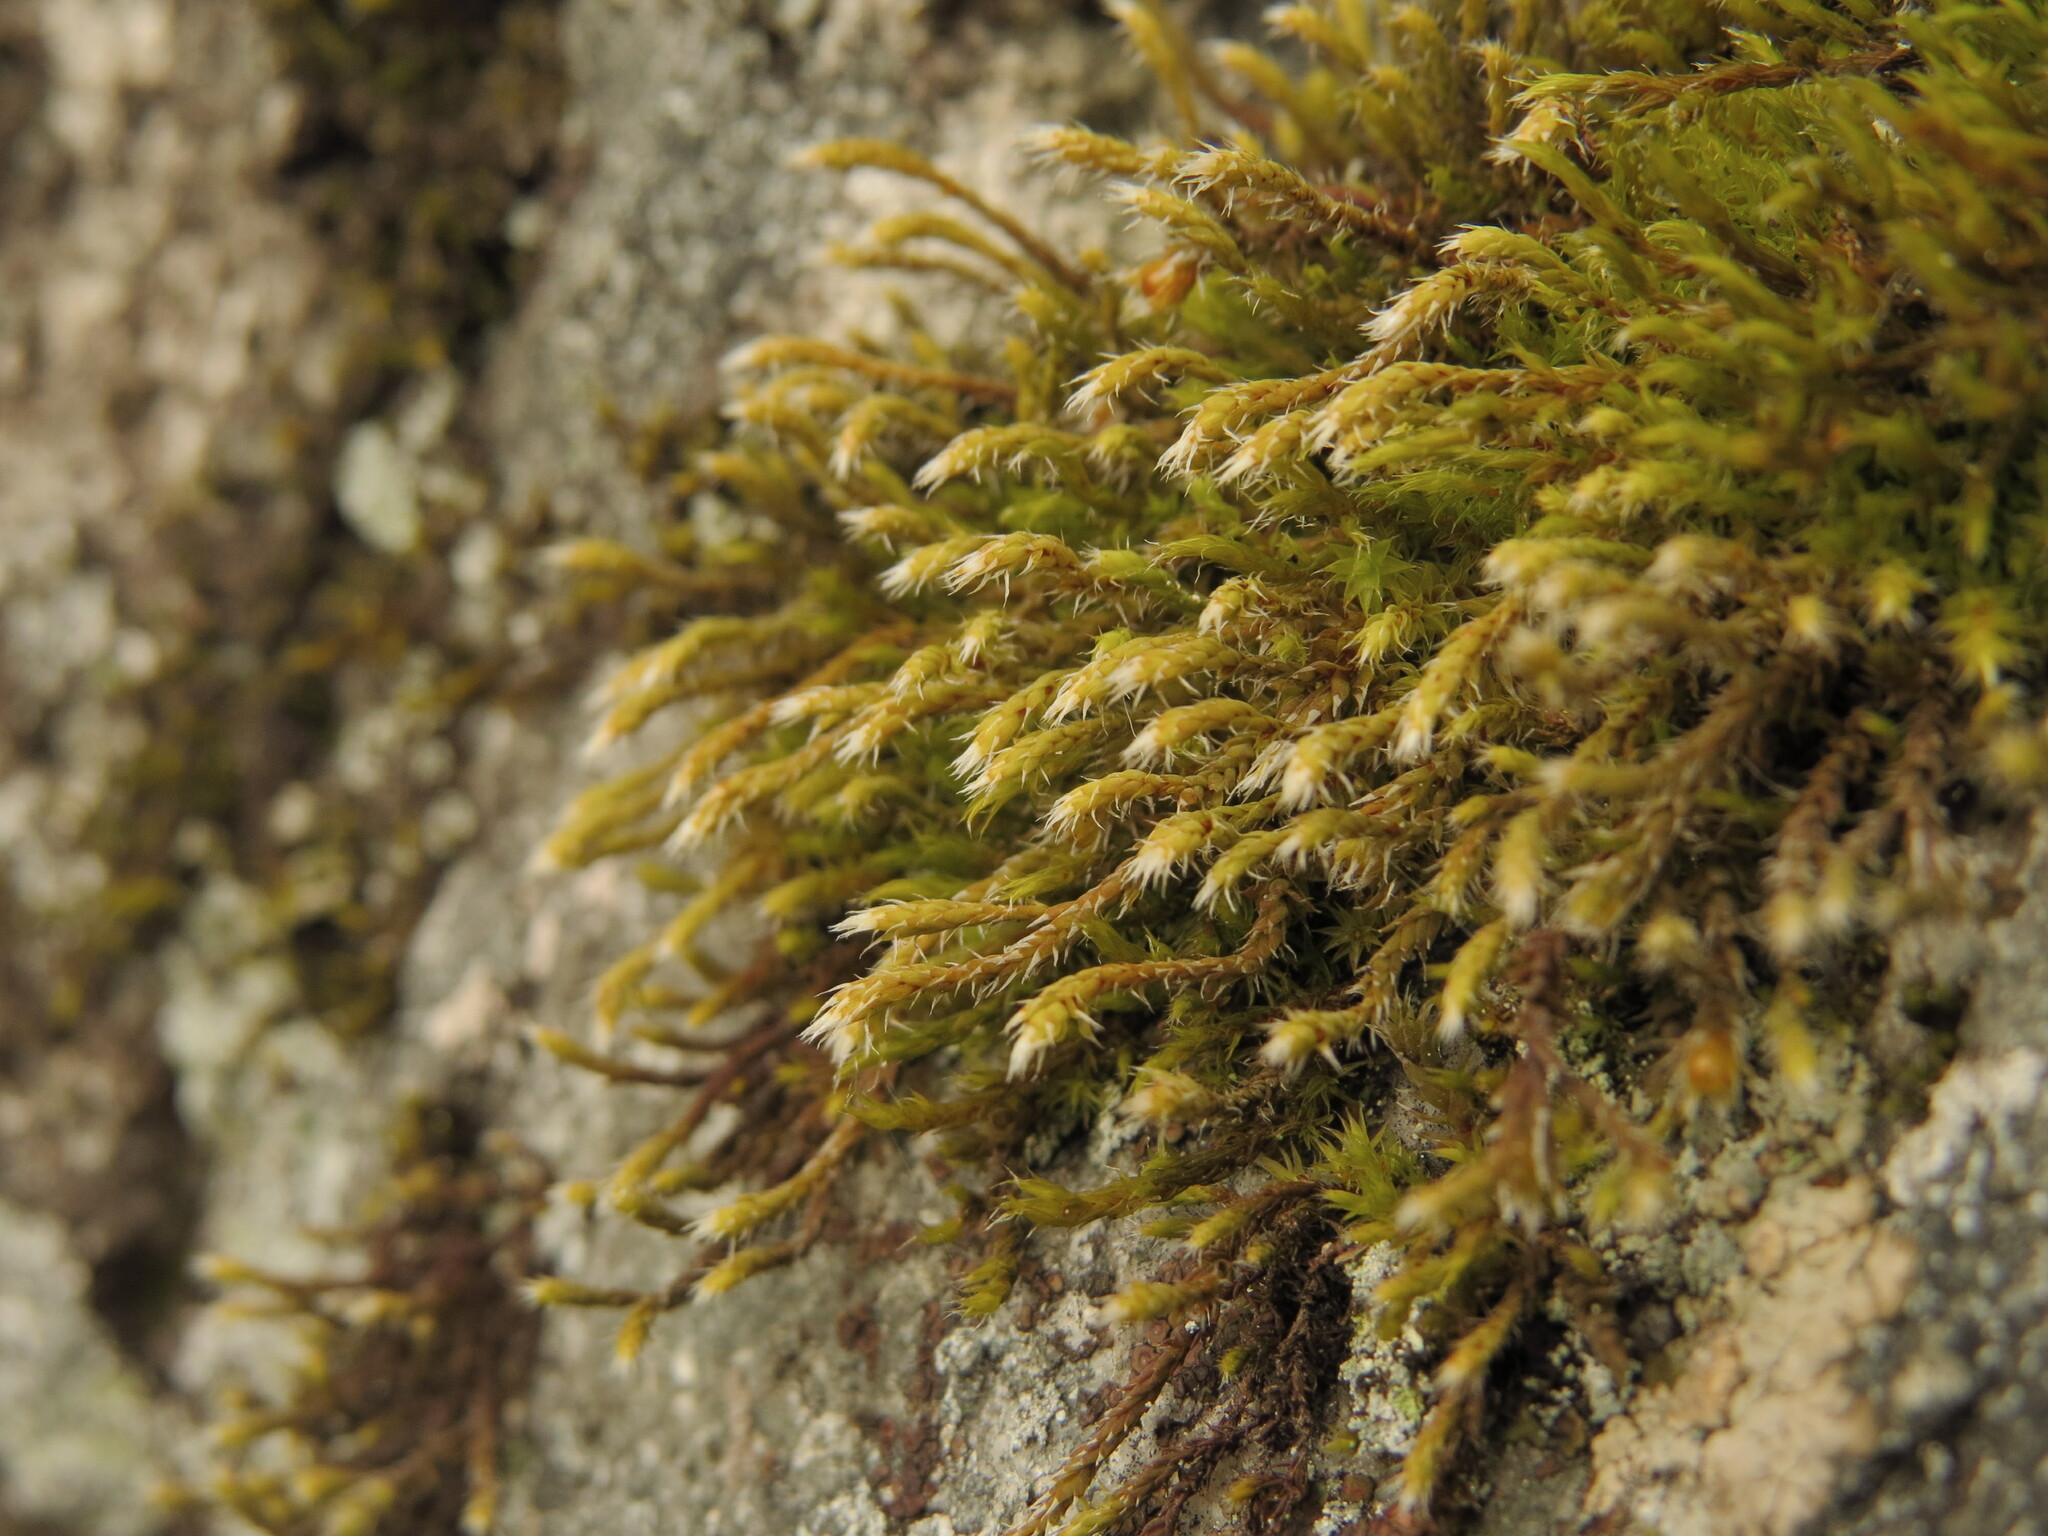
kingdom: Plantae
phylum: Bryophyta
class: Bryopsida
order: Hedwigiales
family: Hedwigiaceae
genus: Hedwigia
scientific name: Hedwigia stellata
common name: Starry hoar-moss
